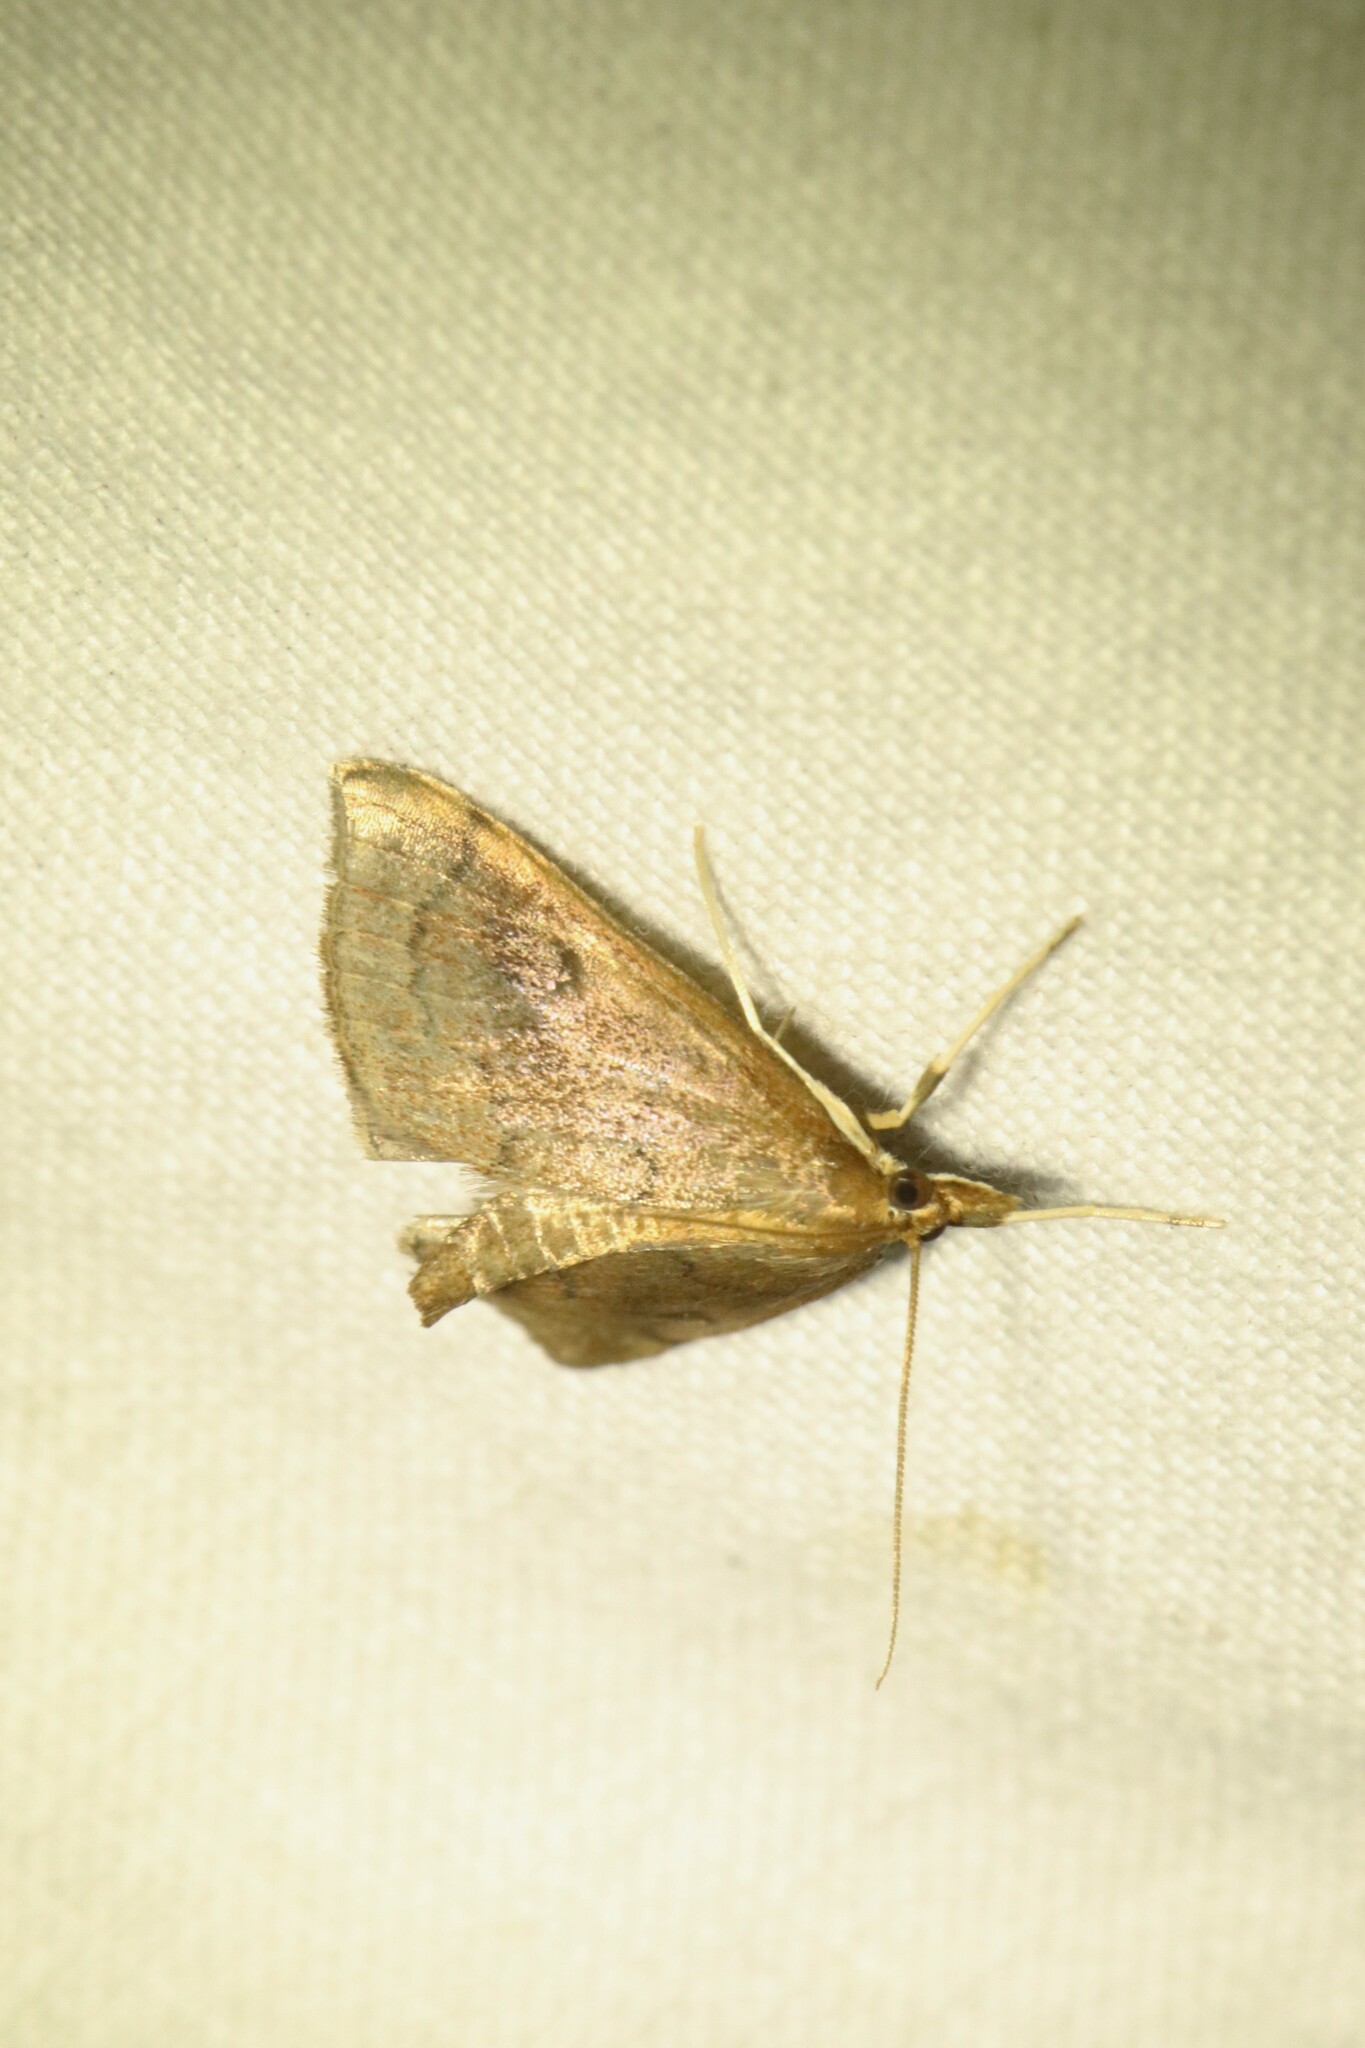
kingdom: Animalia
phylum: Arthropoda
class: Insecta
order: Lepidoptera
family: Crambidae
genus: Fumibotys
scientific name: Fumibotys fumalis
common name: Mint root borer moth
